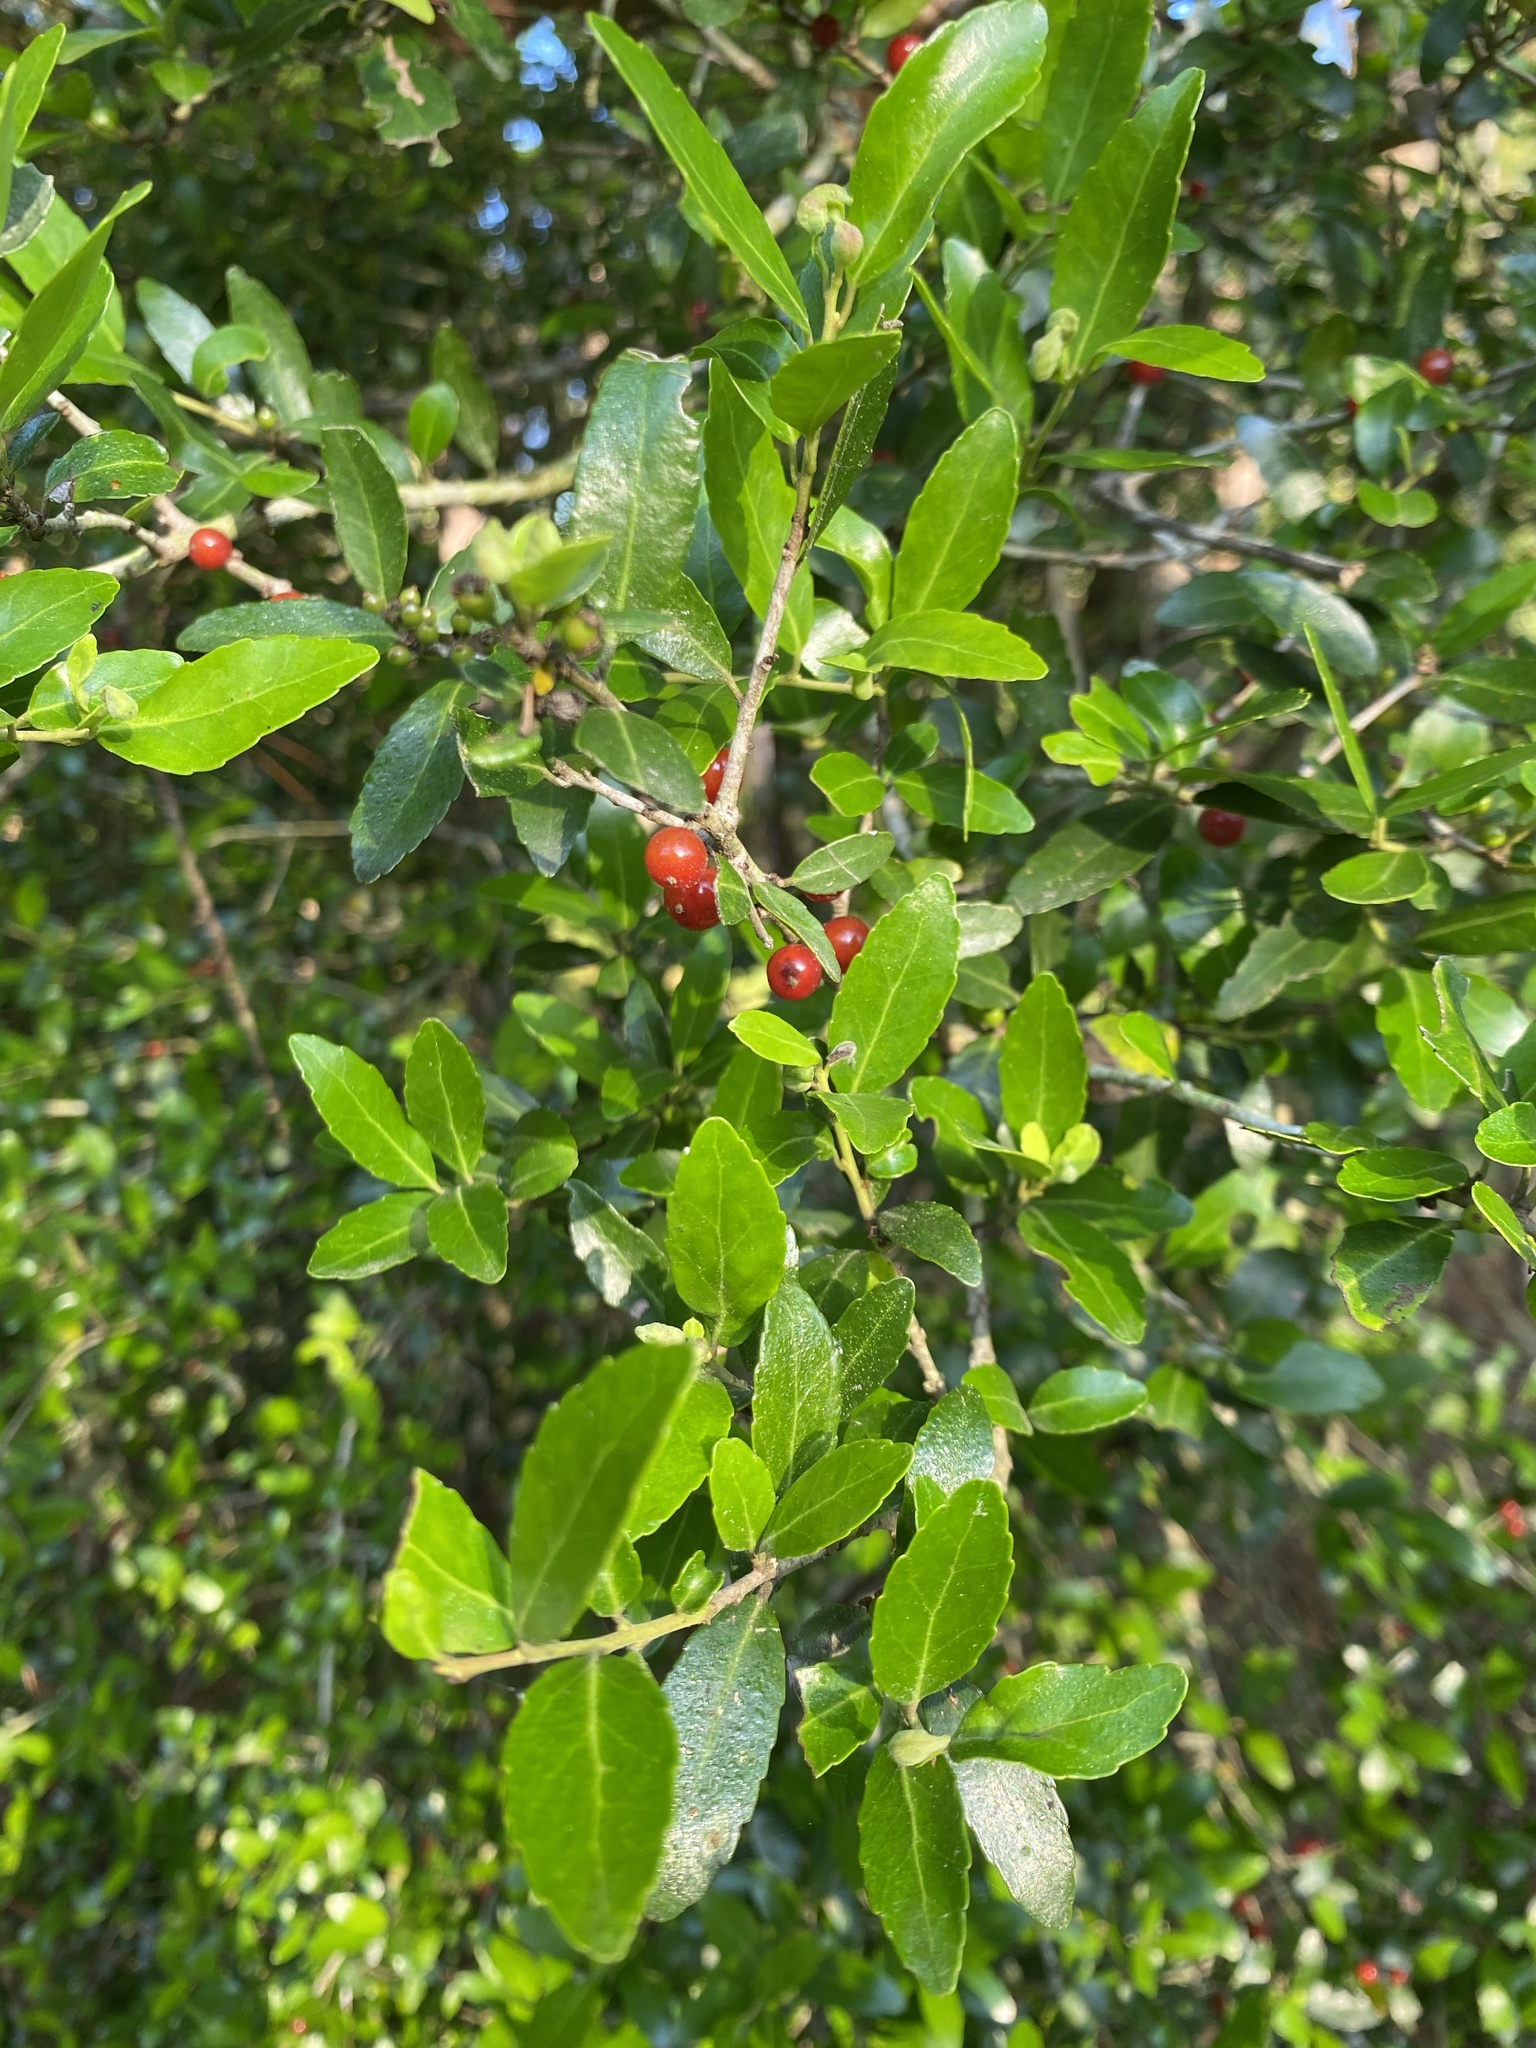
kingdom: Plantae
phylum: Tracheophyta
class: Magnoliopsida
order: Aquifoliales
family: Aquifoliaceae
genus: Ilex
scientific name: Ilex vomitoria
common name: Yaupon holly
